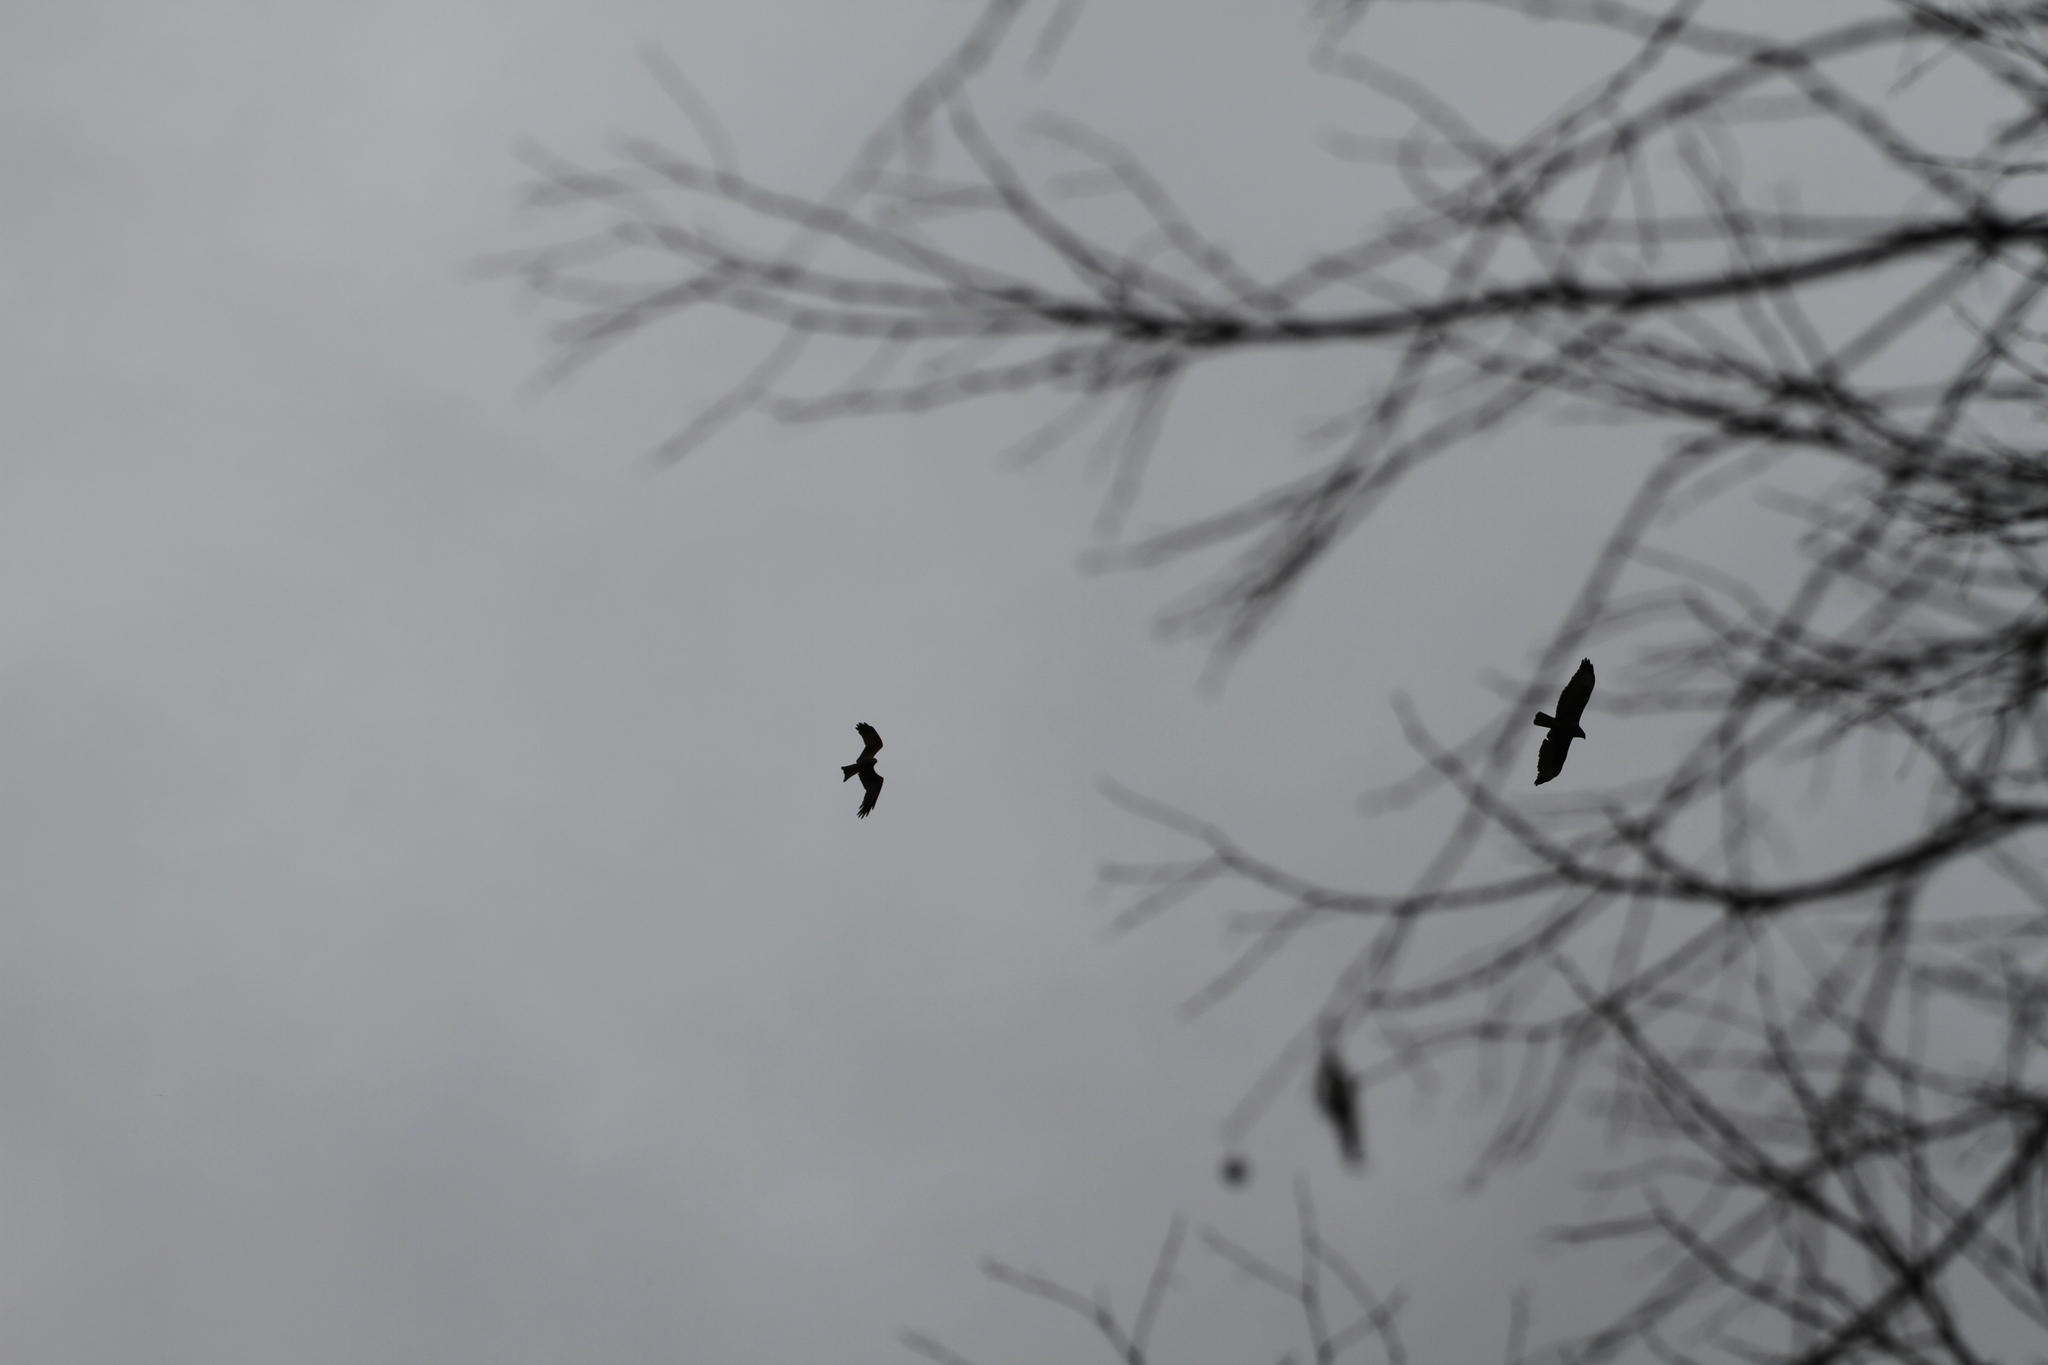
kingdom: Animalia
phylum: Chordata
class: Aves
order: Accipitriformes
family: Accipitridae
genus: Milvus
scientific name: Milvus migrans
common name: Black kite
